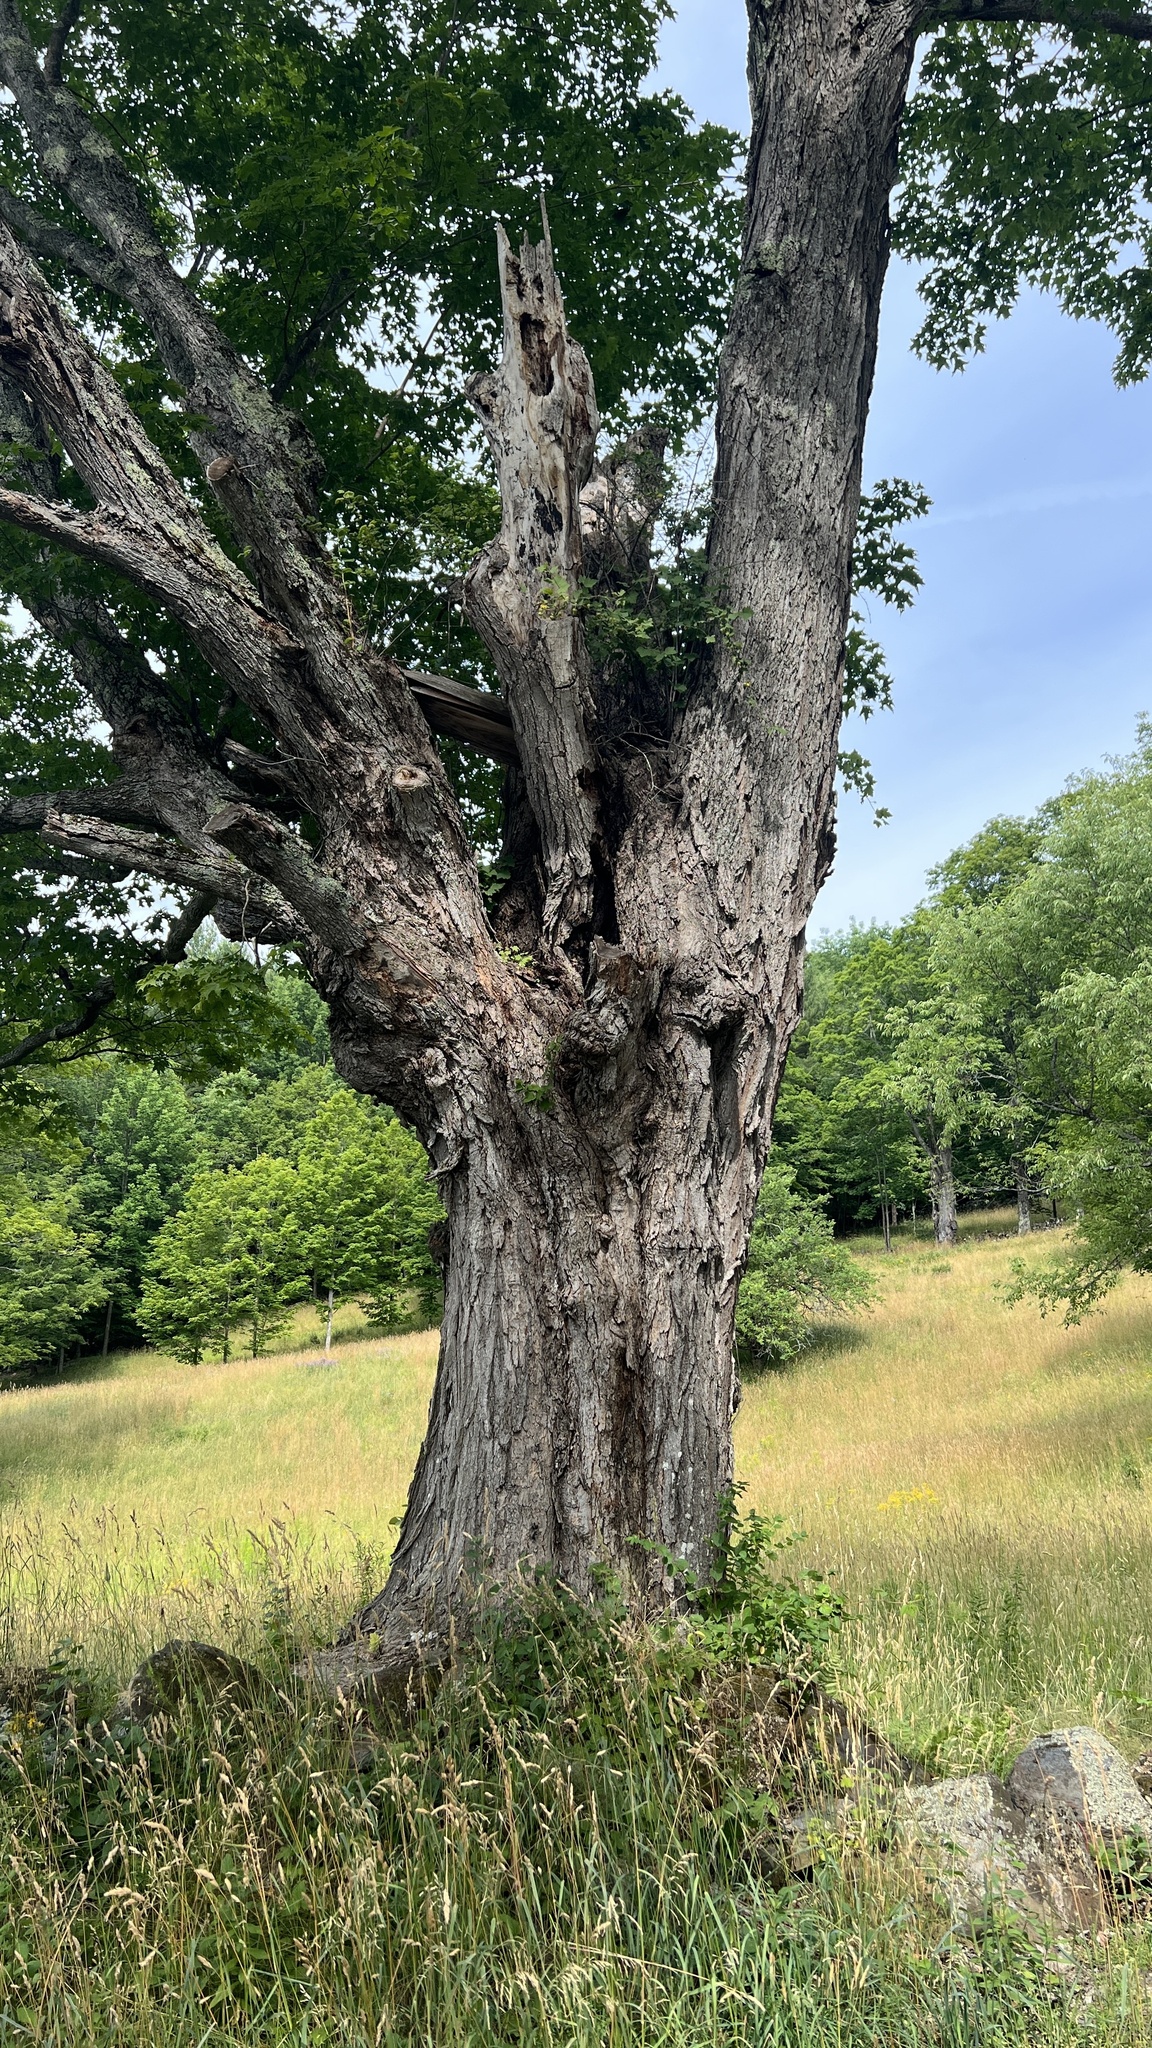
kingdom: Plantae
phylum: Tracheophyta
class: Magnoliopsida
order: Sapindales
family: Sapindaceae
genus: Acer
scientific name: Acer saccharum
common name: Sugar maple
